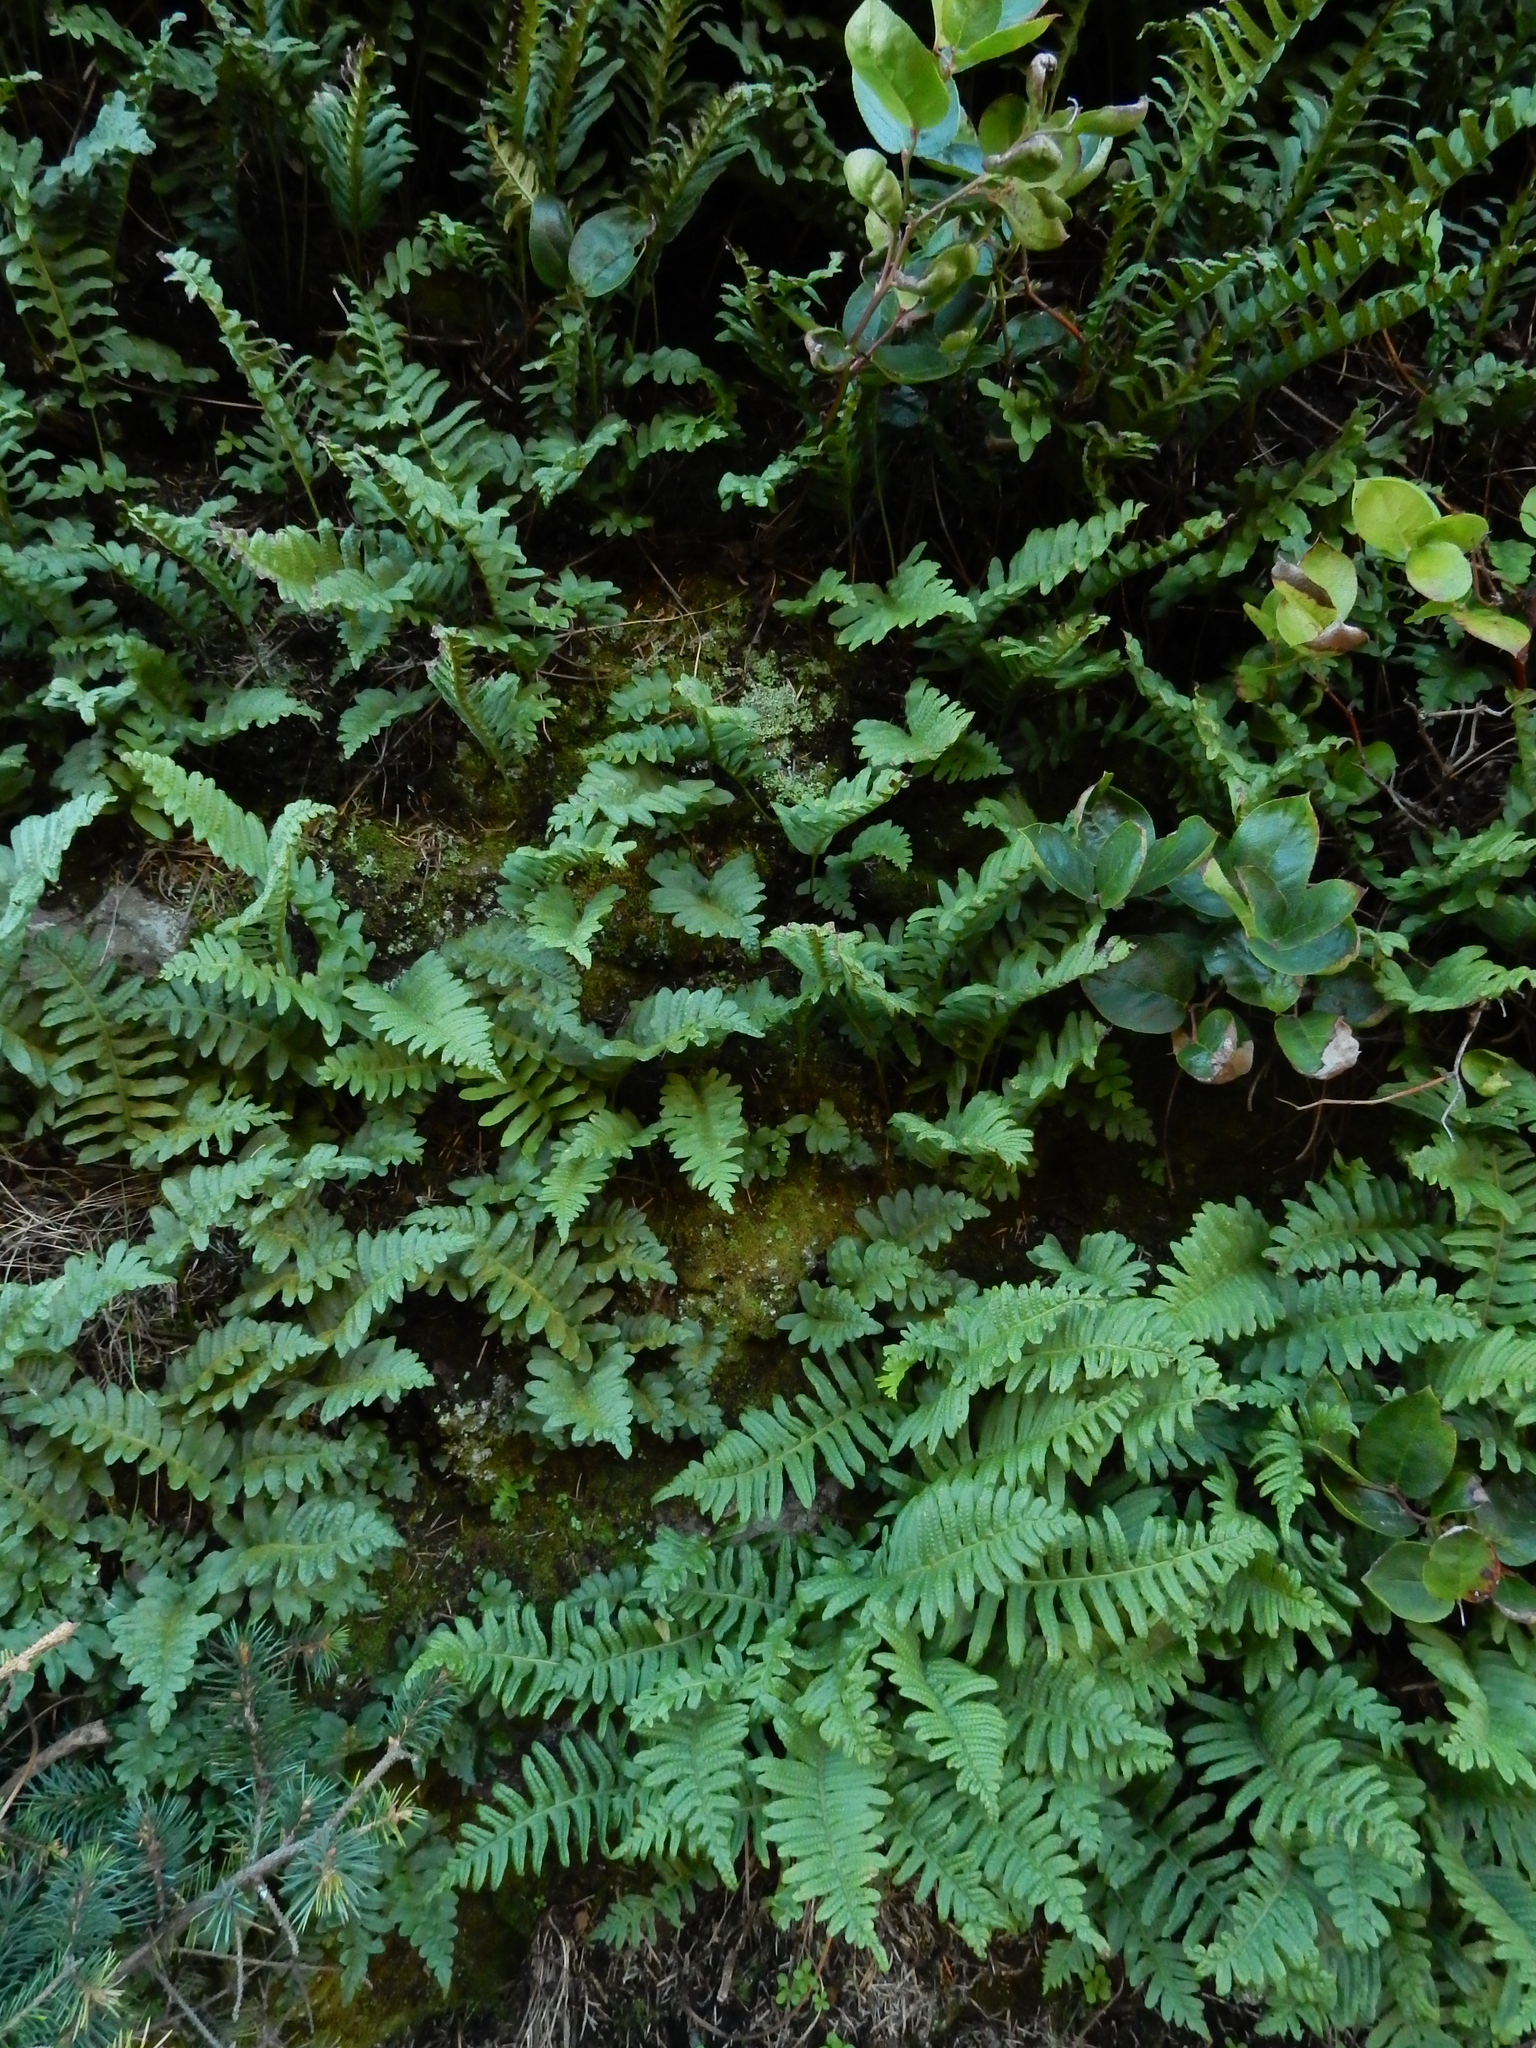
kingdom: Plantae
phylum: Tracheophyta
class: Polypodiopsida
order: Polypodiales
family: Polypodiaceae
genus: Polypodium
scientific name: Polypodium calirhiza
